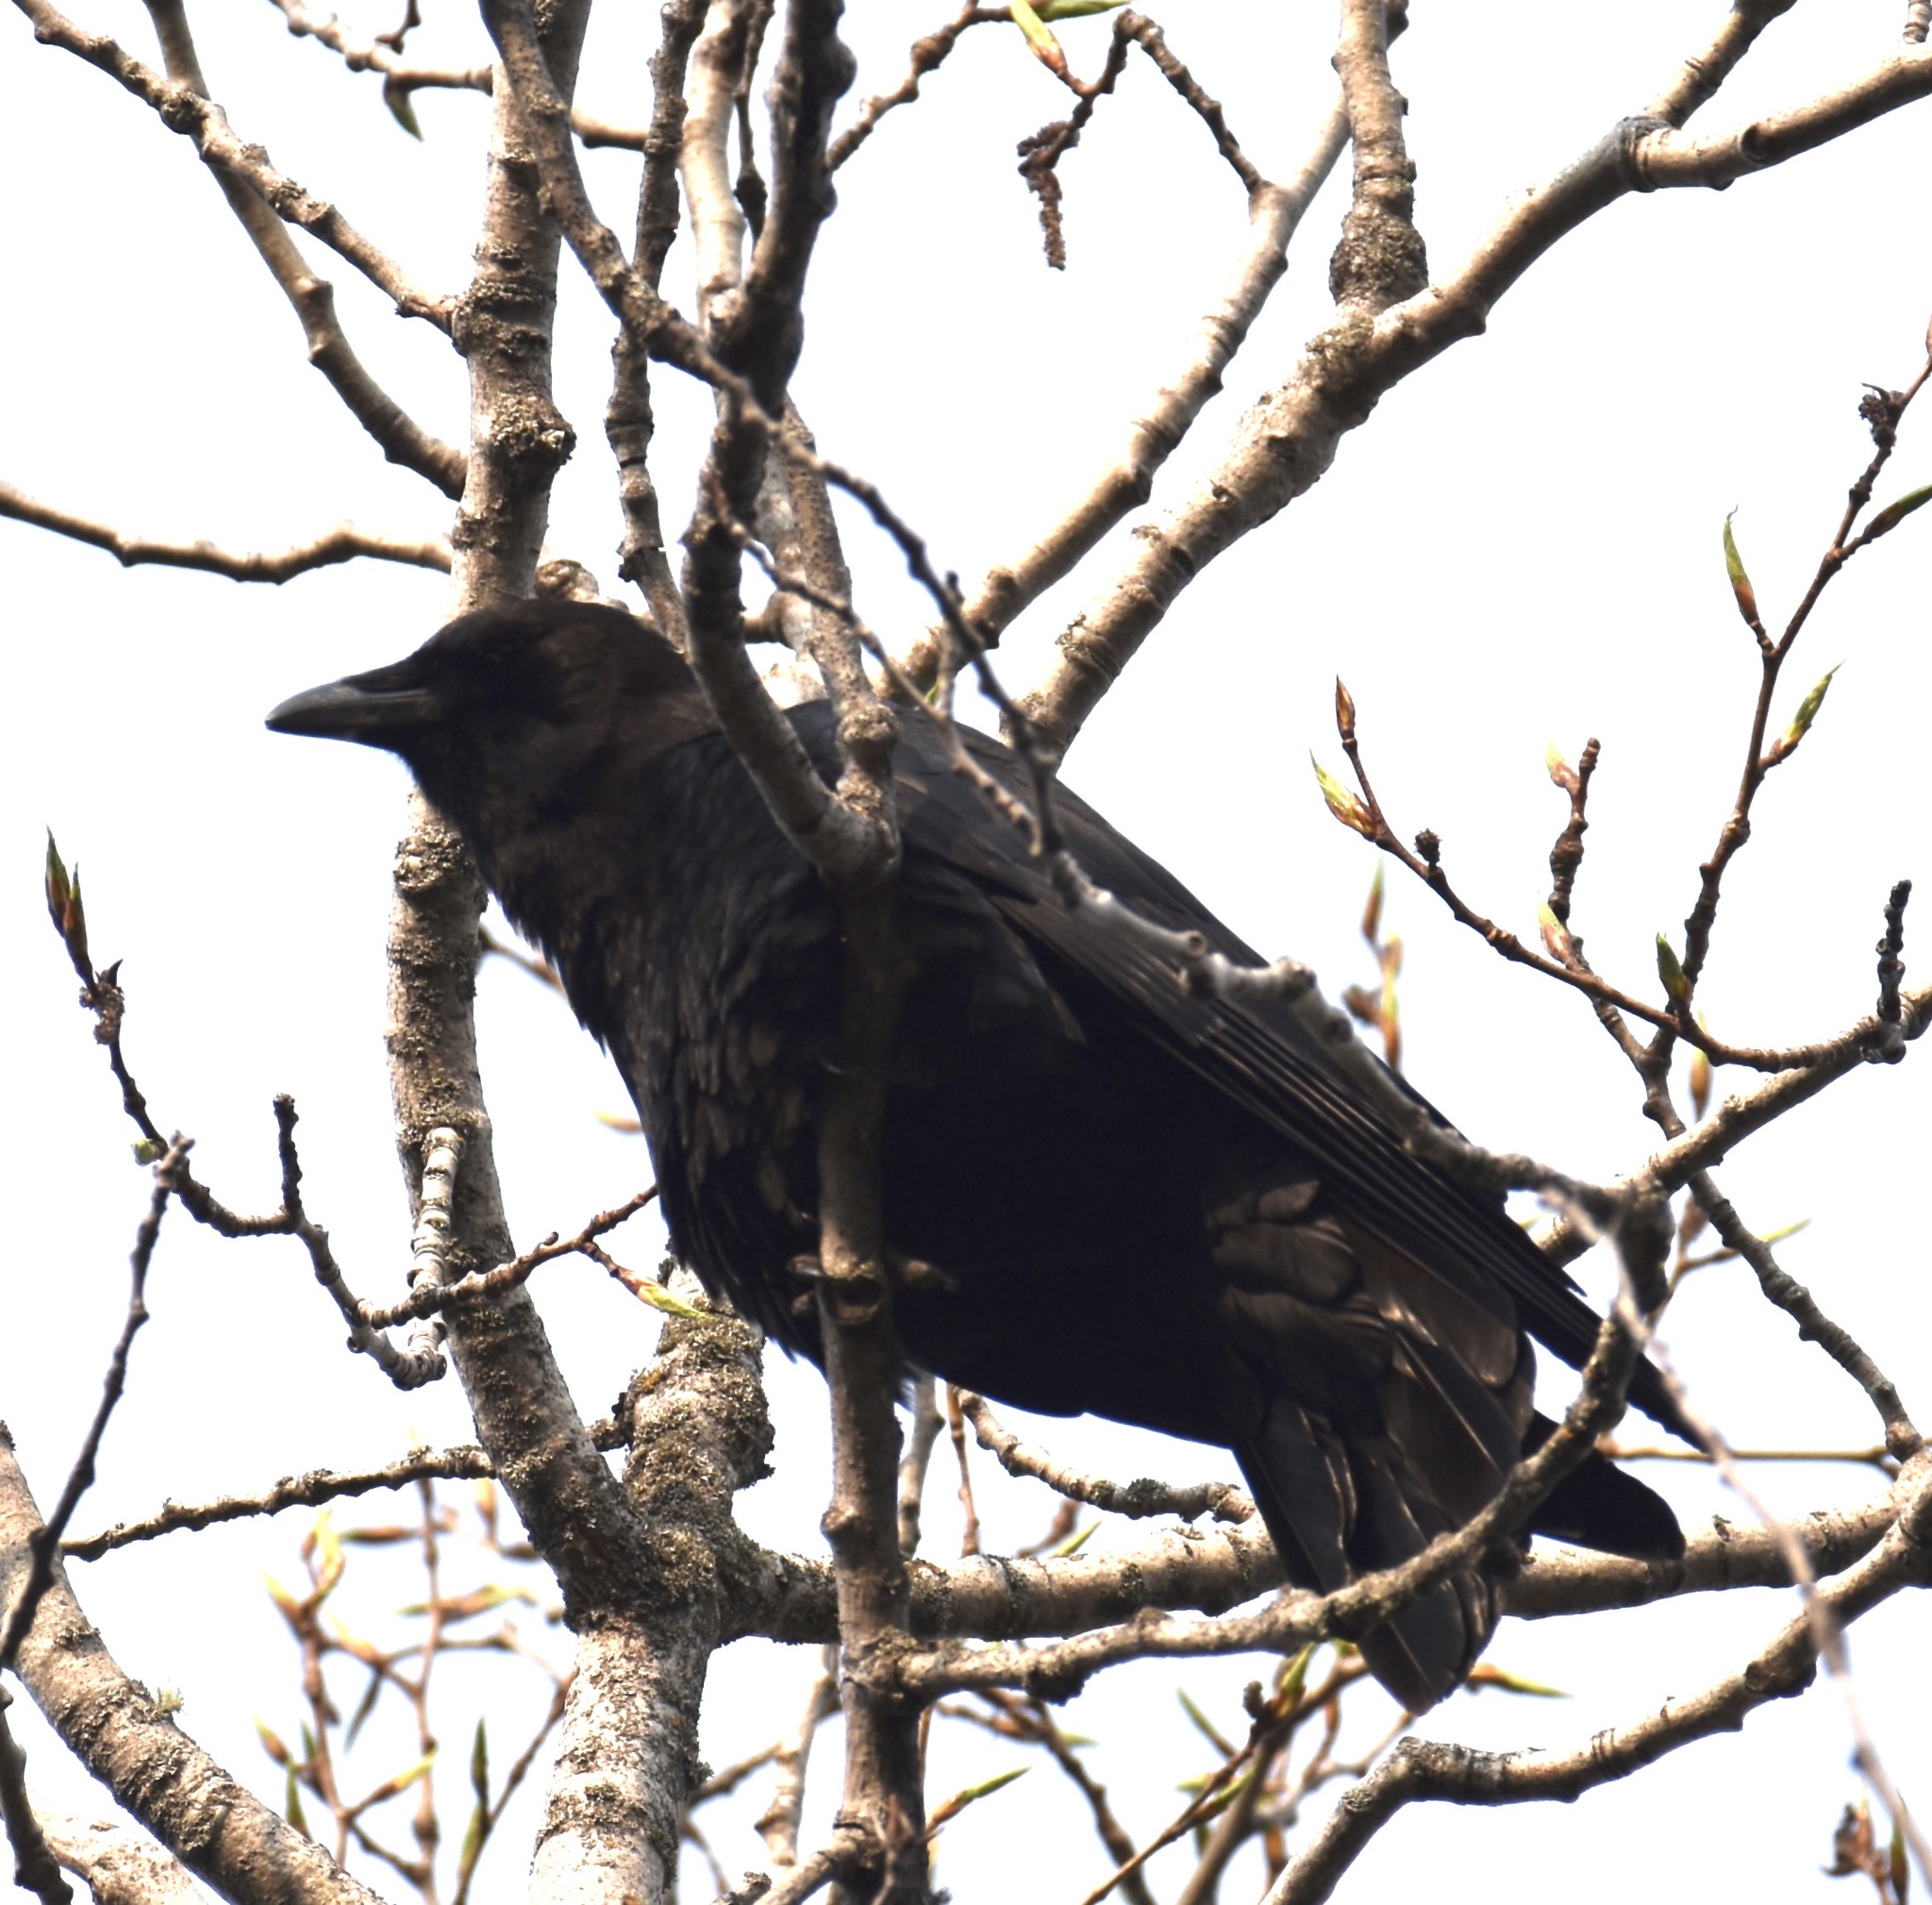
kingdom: Animalia
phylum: Chordata
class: Aves
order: Passeriformes
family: Corvidae
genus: Corvus
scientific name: Corvus corax
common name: Common raven
